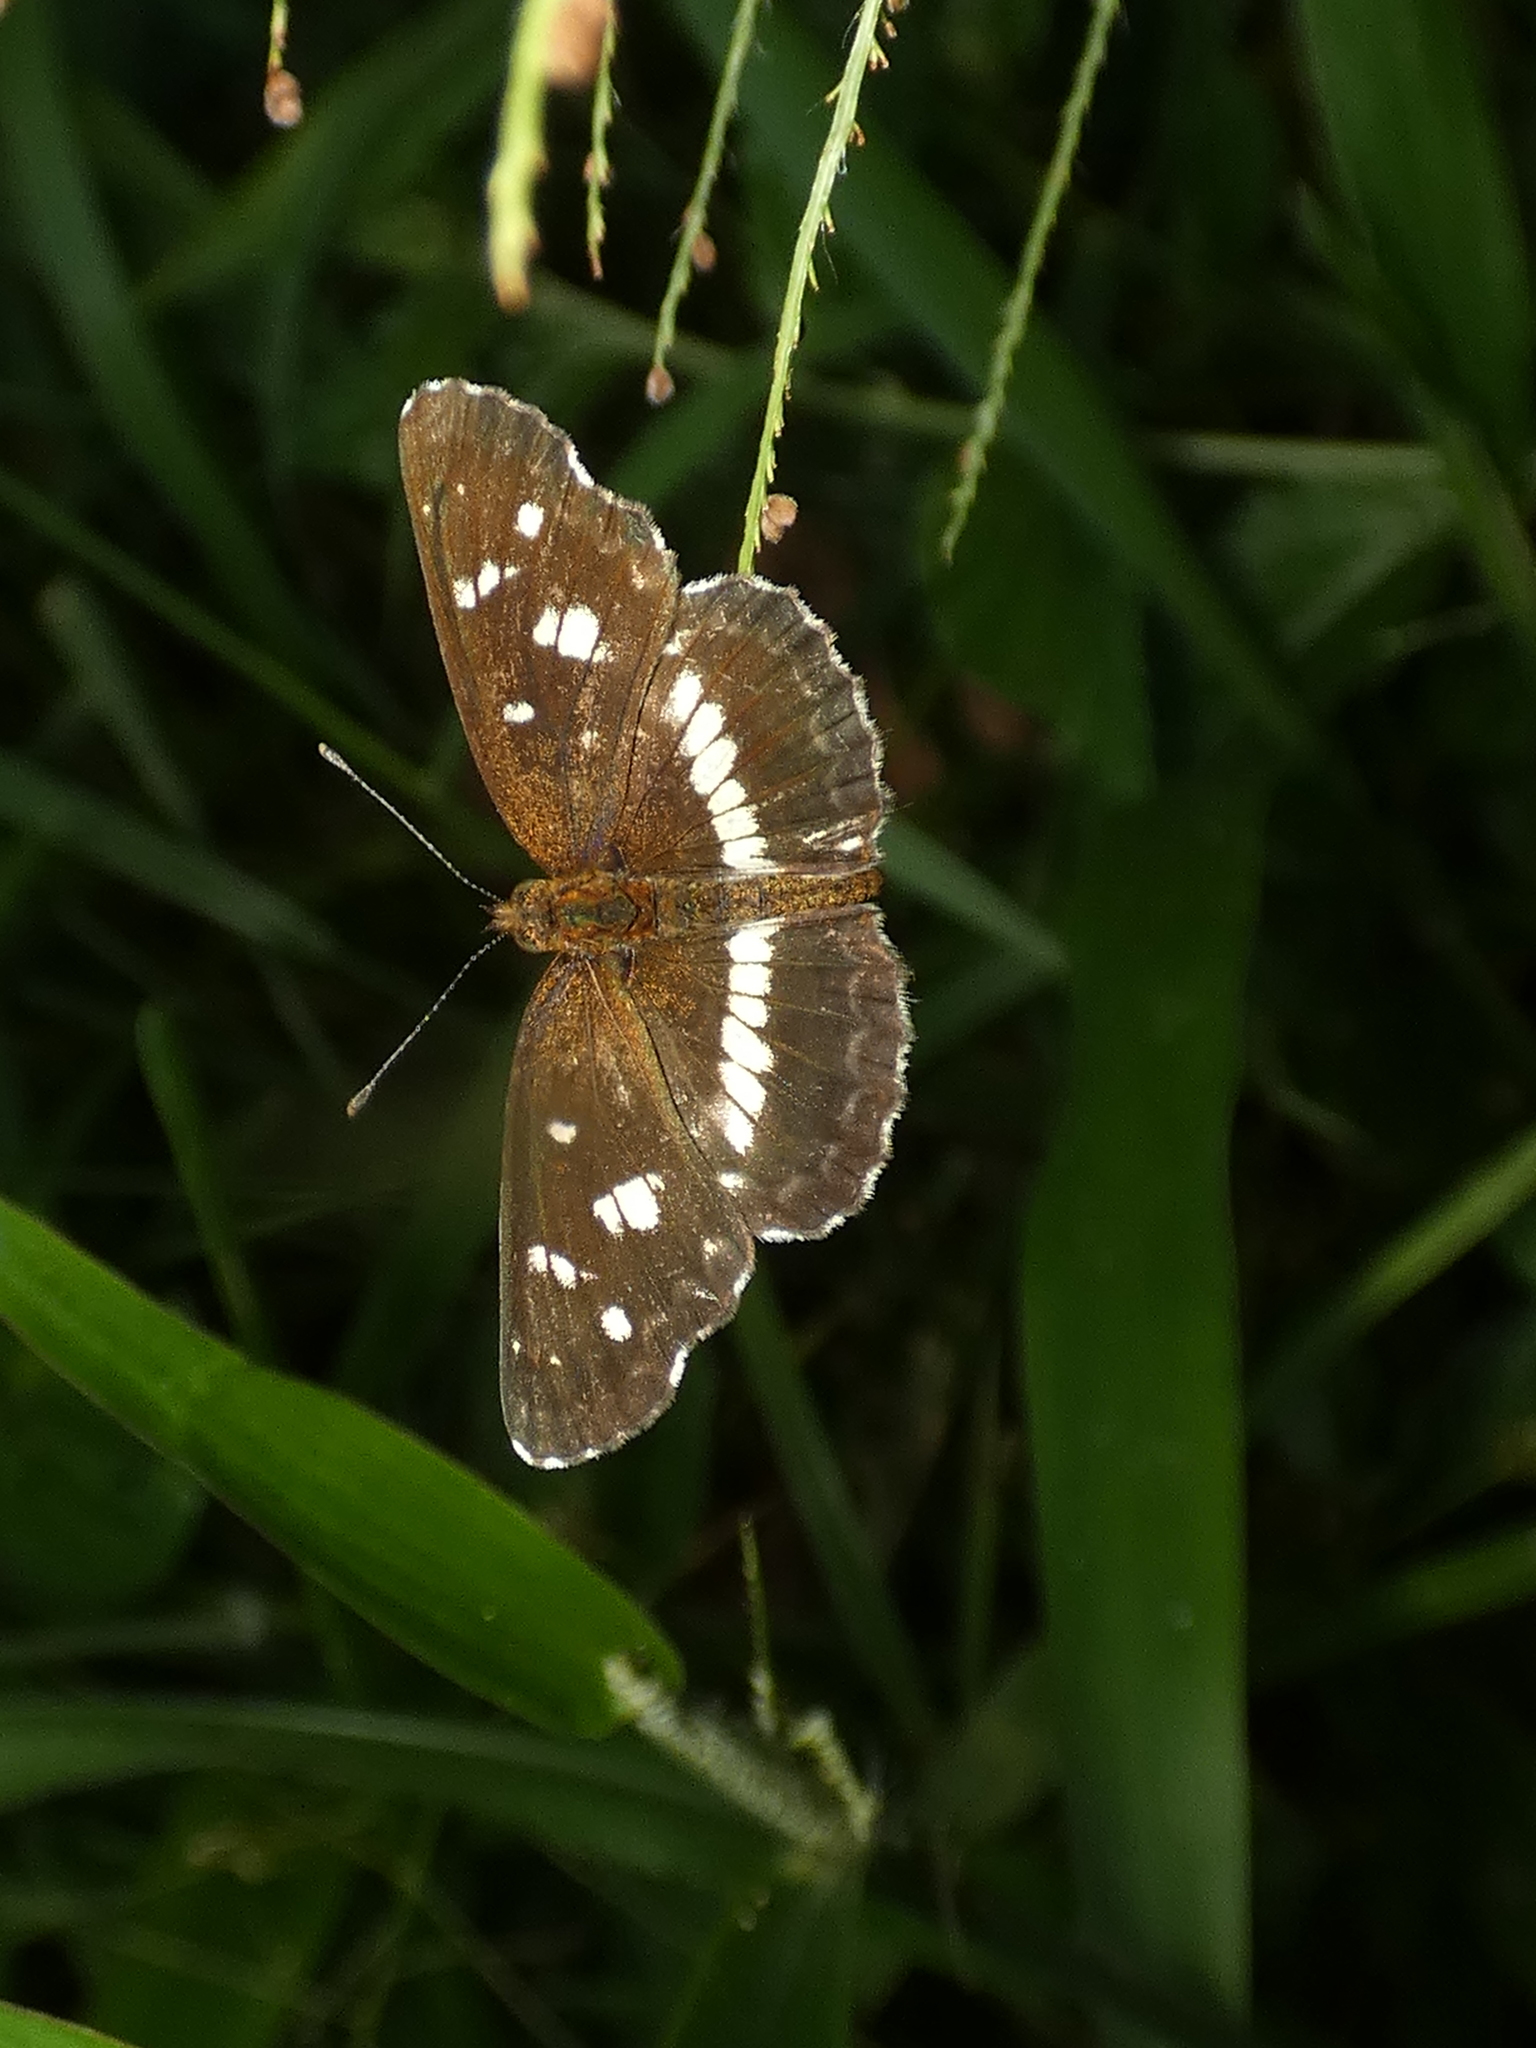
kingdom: Animalia
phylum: Arthropoda
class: Insecta
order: Lepidoptera
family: Nymphalidae
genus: Ortilia
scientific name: Ortilia ithra
